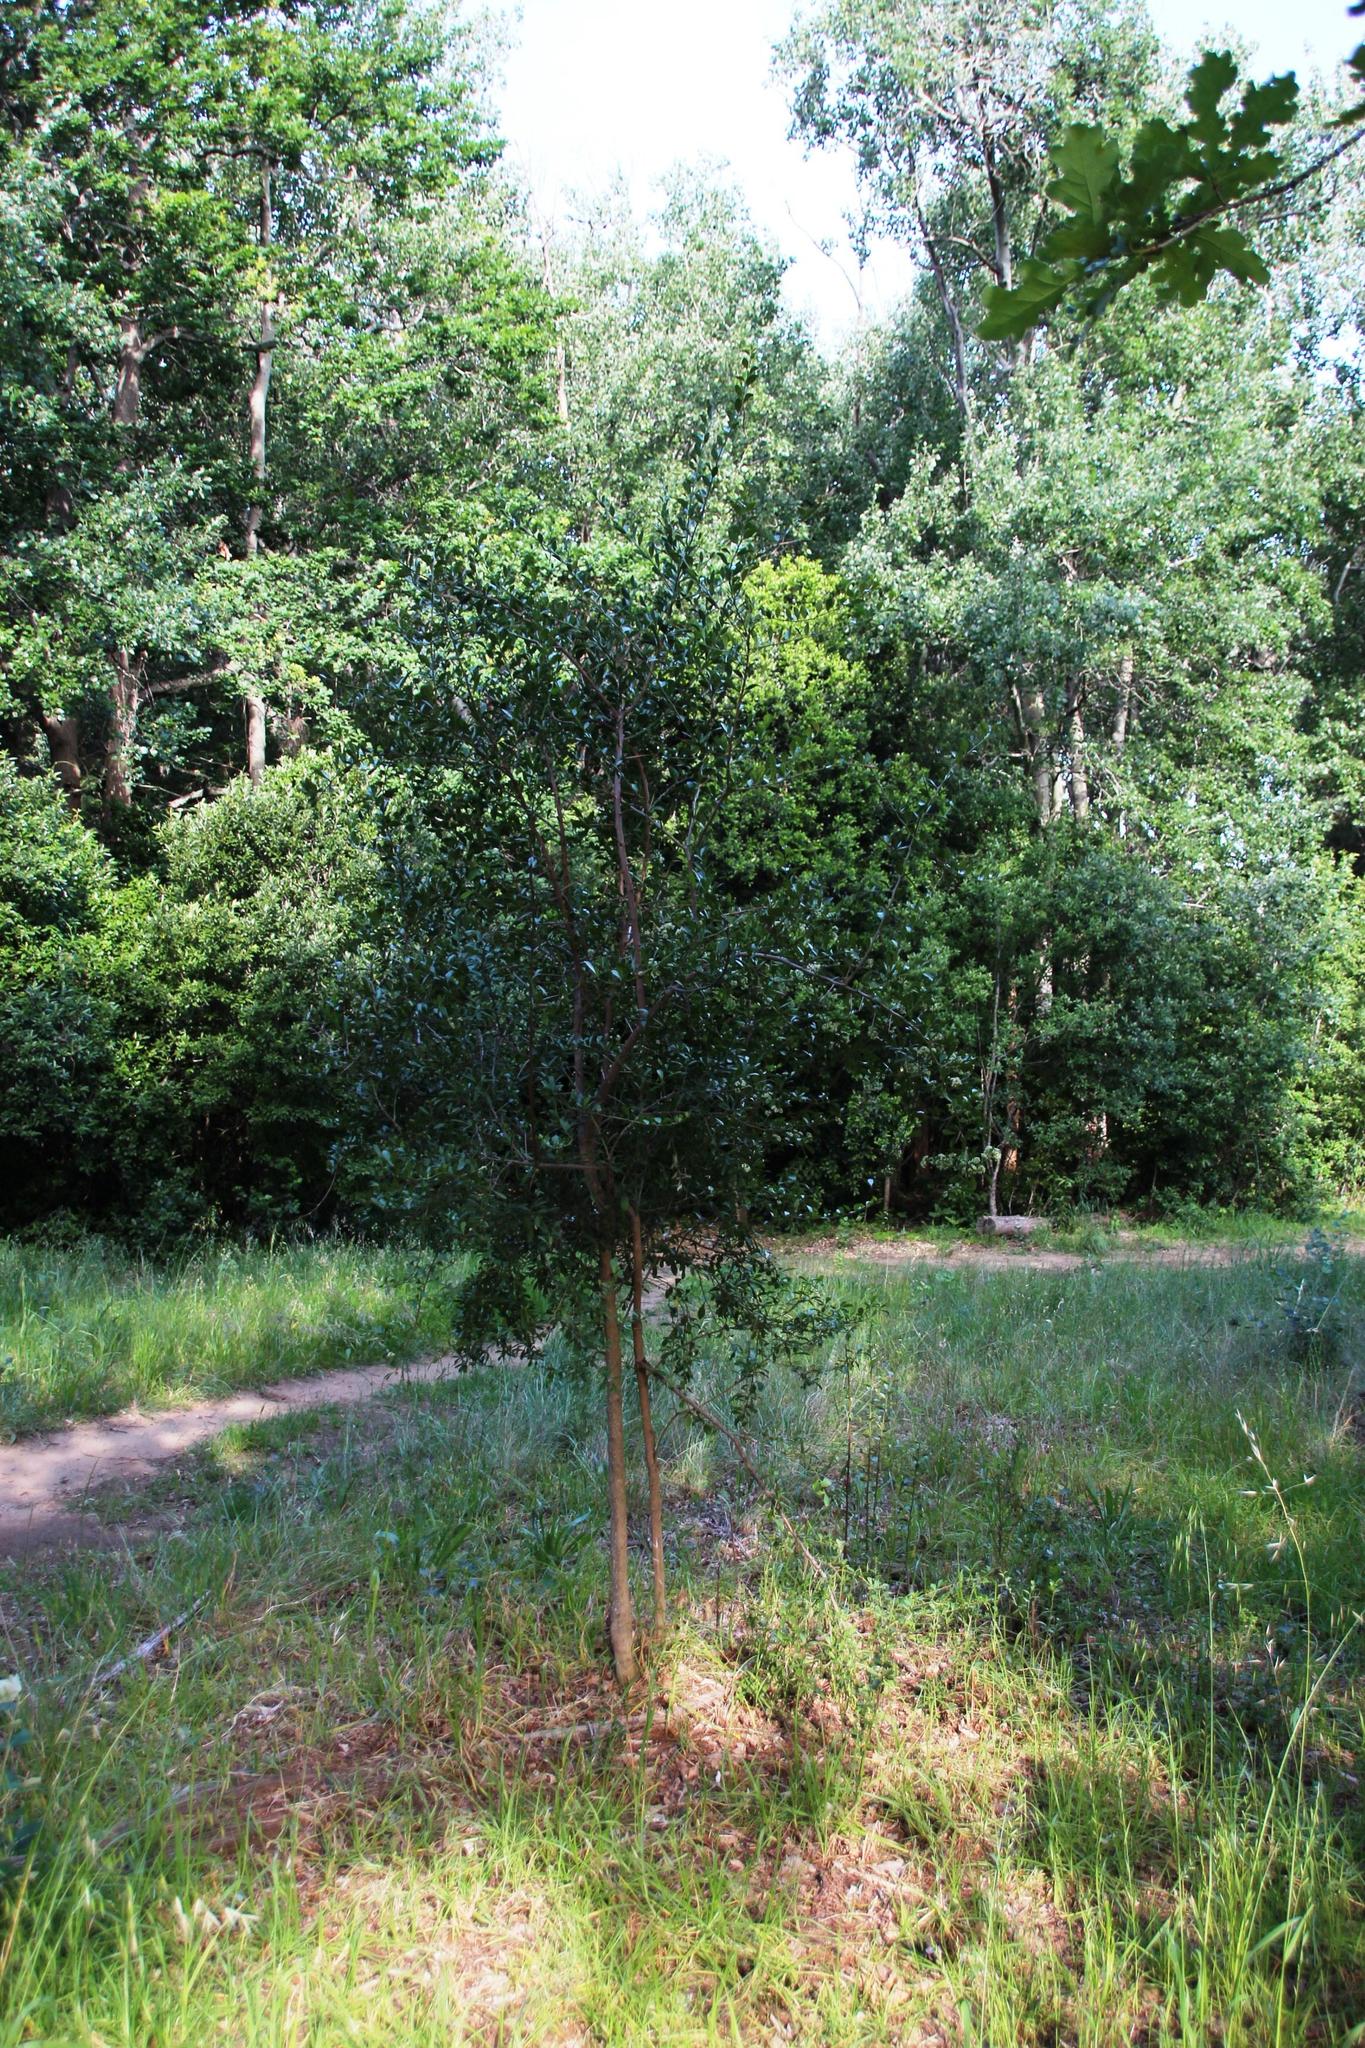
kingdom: Plantae
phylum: Tracheophyta
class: Magnoliopsida
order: Celastrales
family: Celastraceae
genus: Gymnosporia
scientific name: Gymnosporia buxifolia
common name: Common spike-thorn
